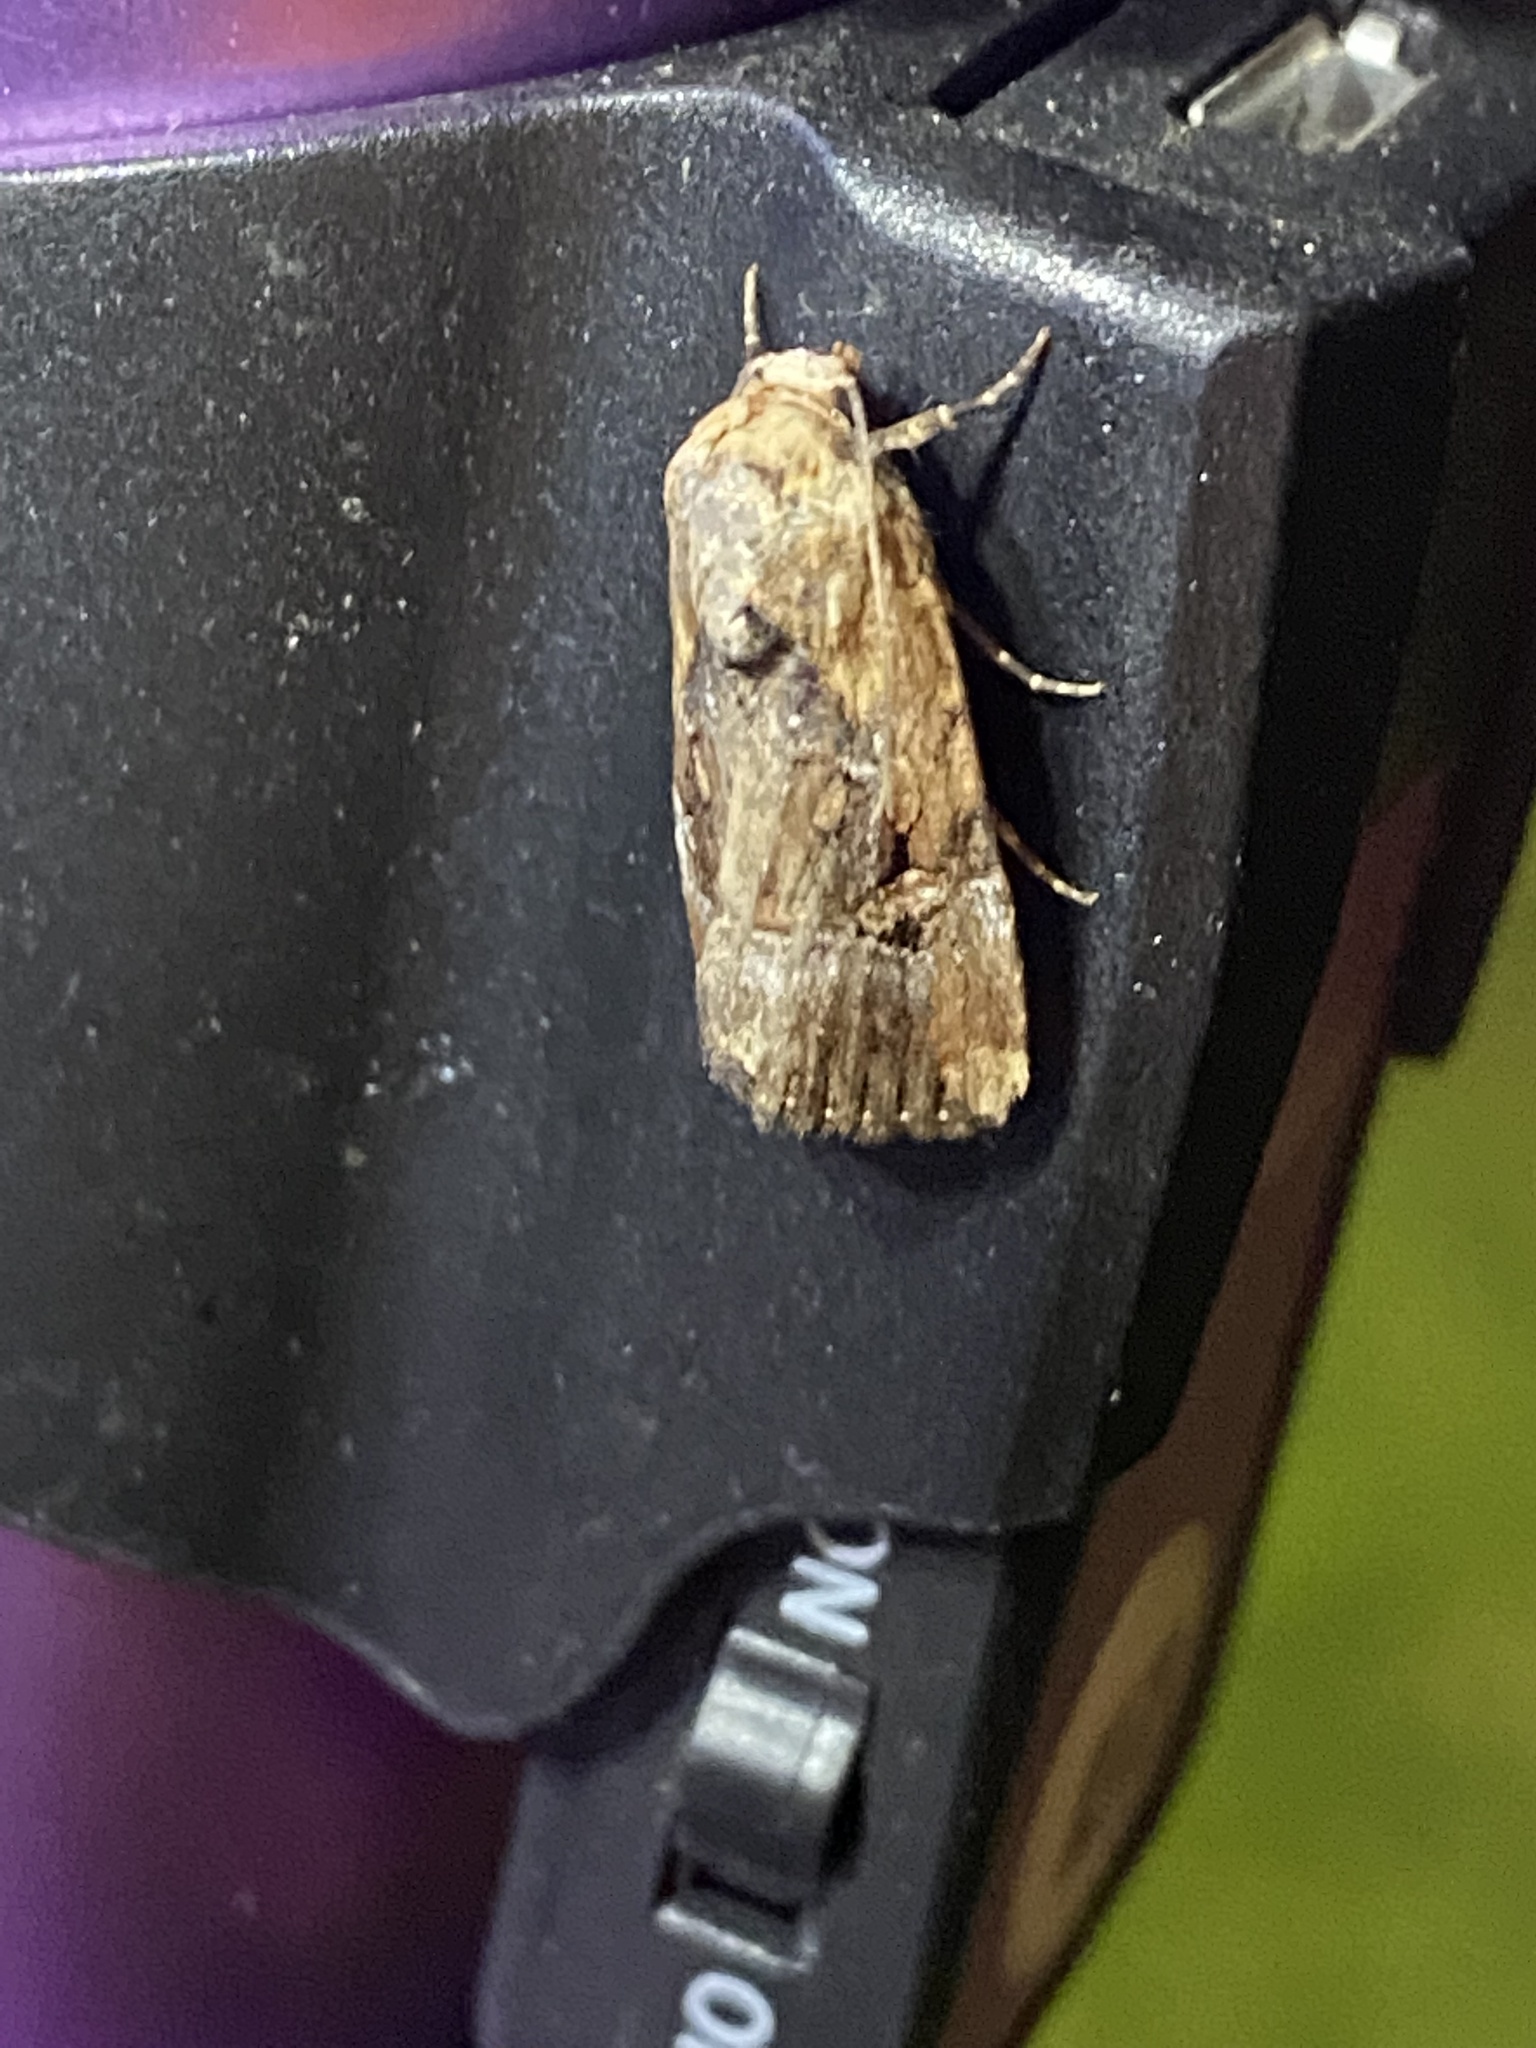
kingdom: Animalia
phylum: Arthropoda
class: Insecta
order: Lepidoptera
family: Noctuidae
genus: Elaphria
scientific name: Elaphria chalcedonia
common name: Chalcedony midget
